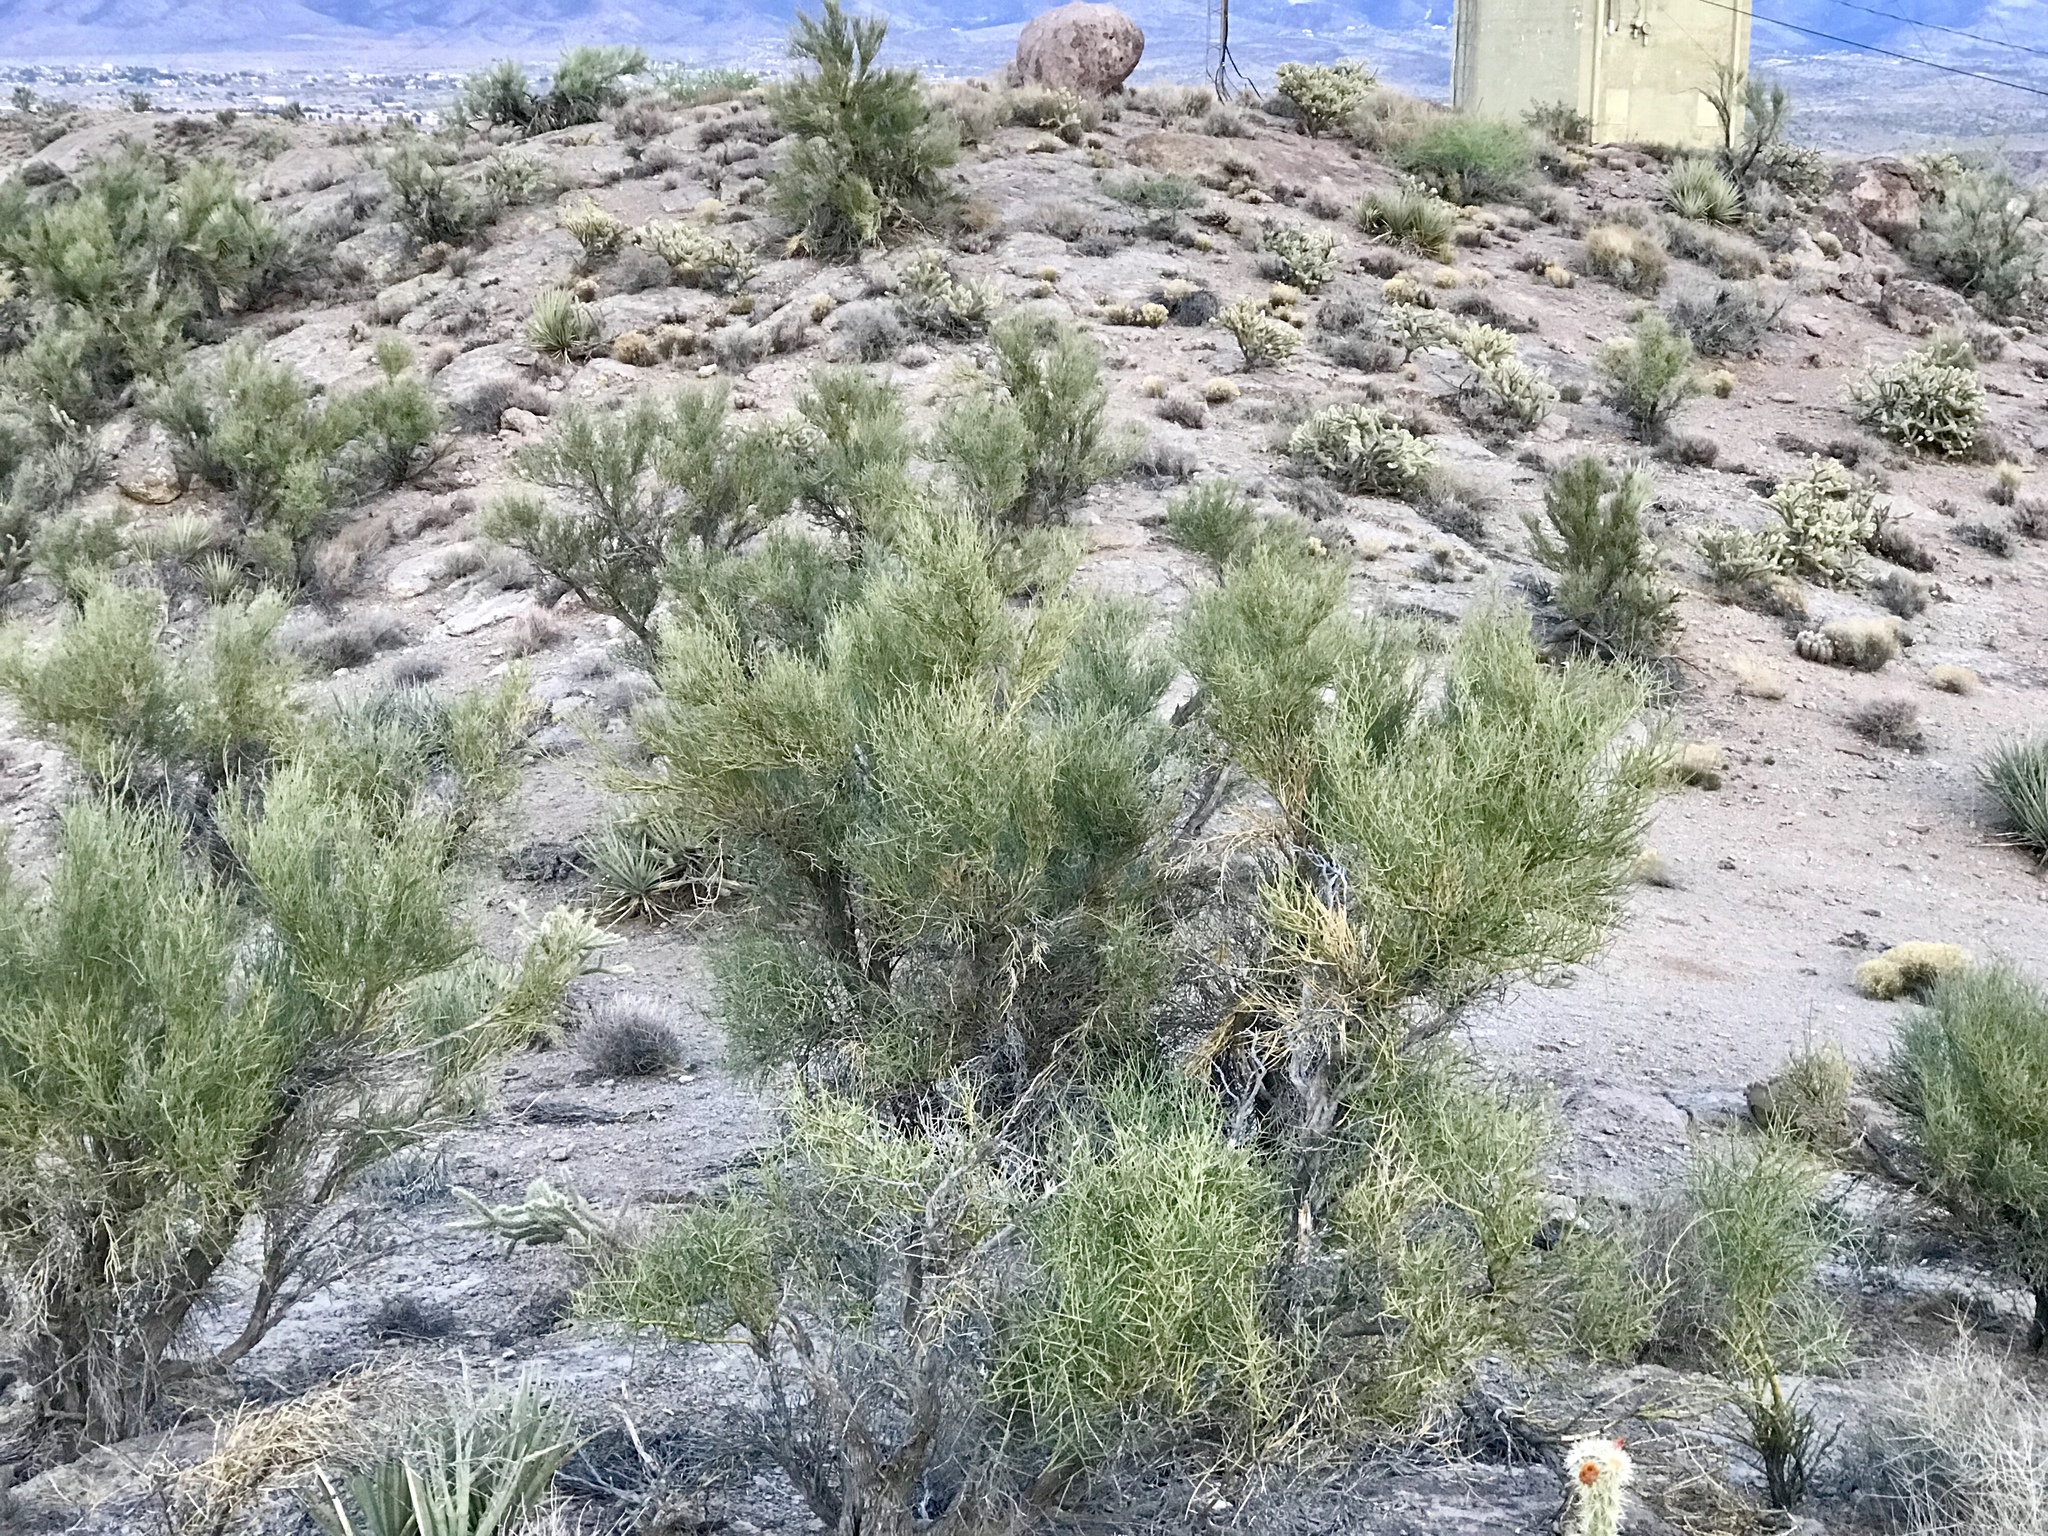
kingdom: Plantae
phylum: Tracheophyta
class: Magnoliopsida
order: Celastrales
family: Celastraceae
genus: Canotia
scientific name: Canotia holacantha
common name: Crucifixion thorns
